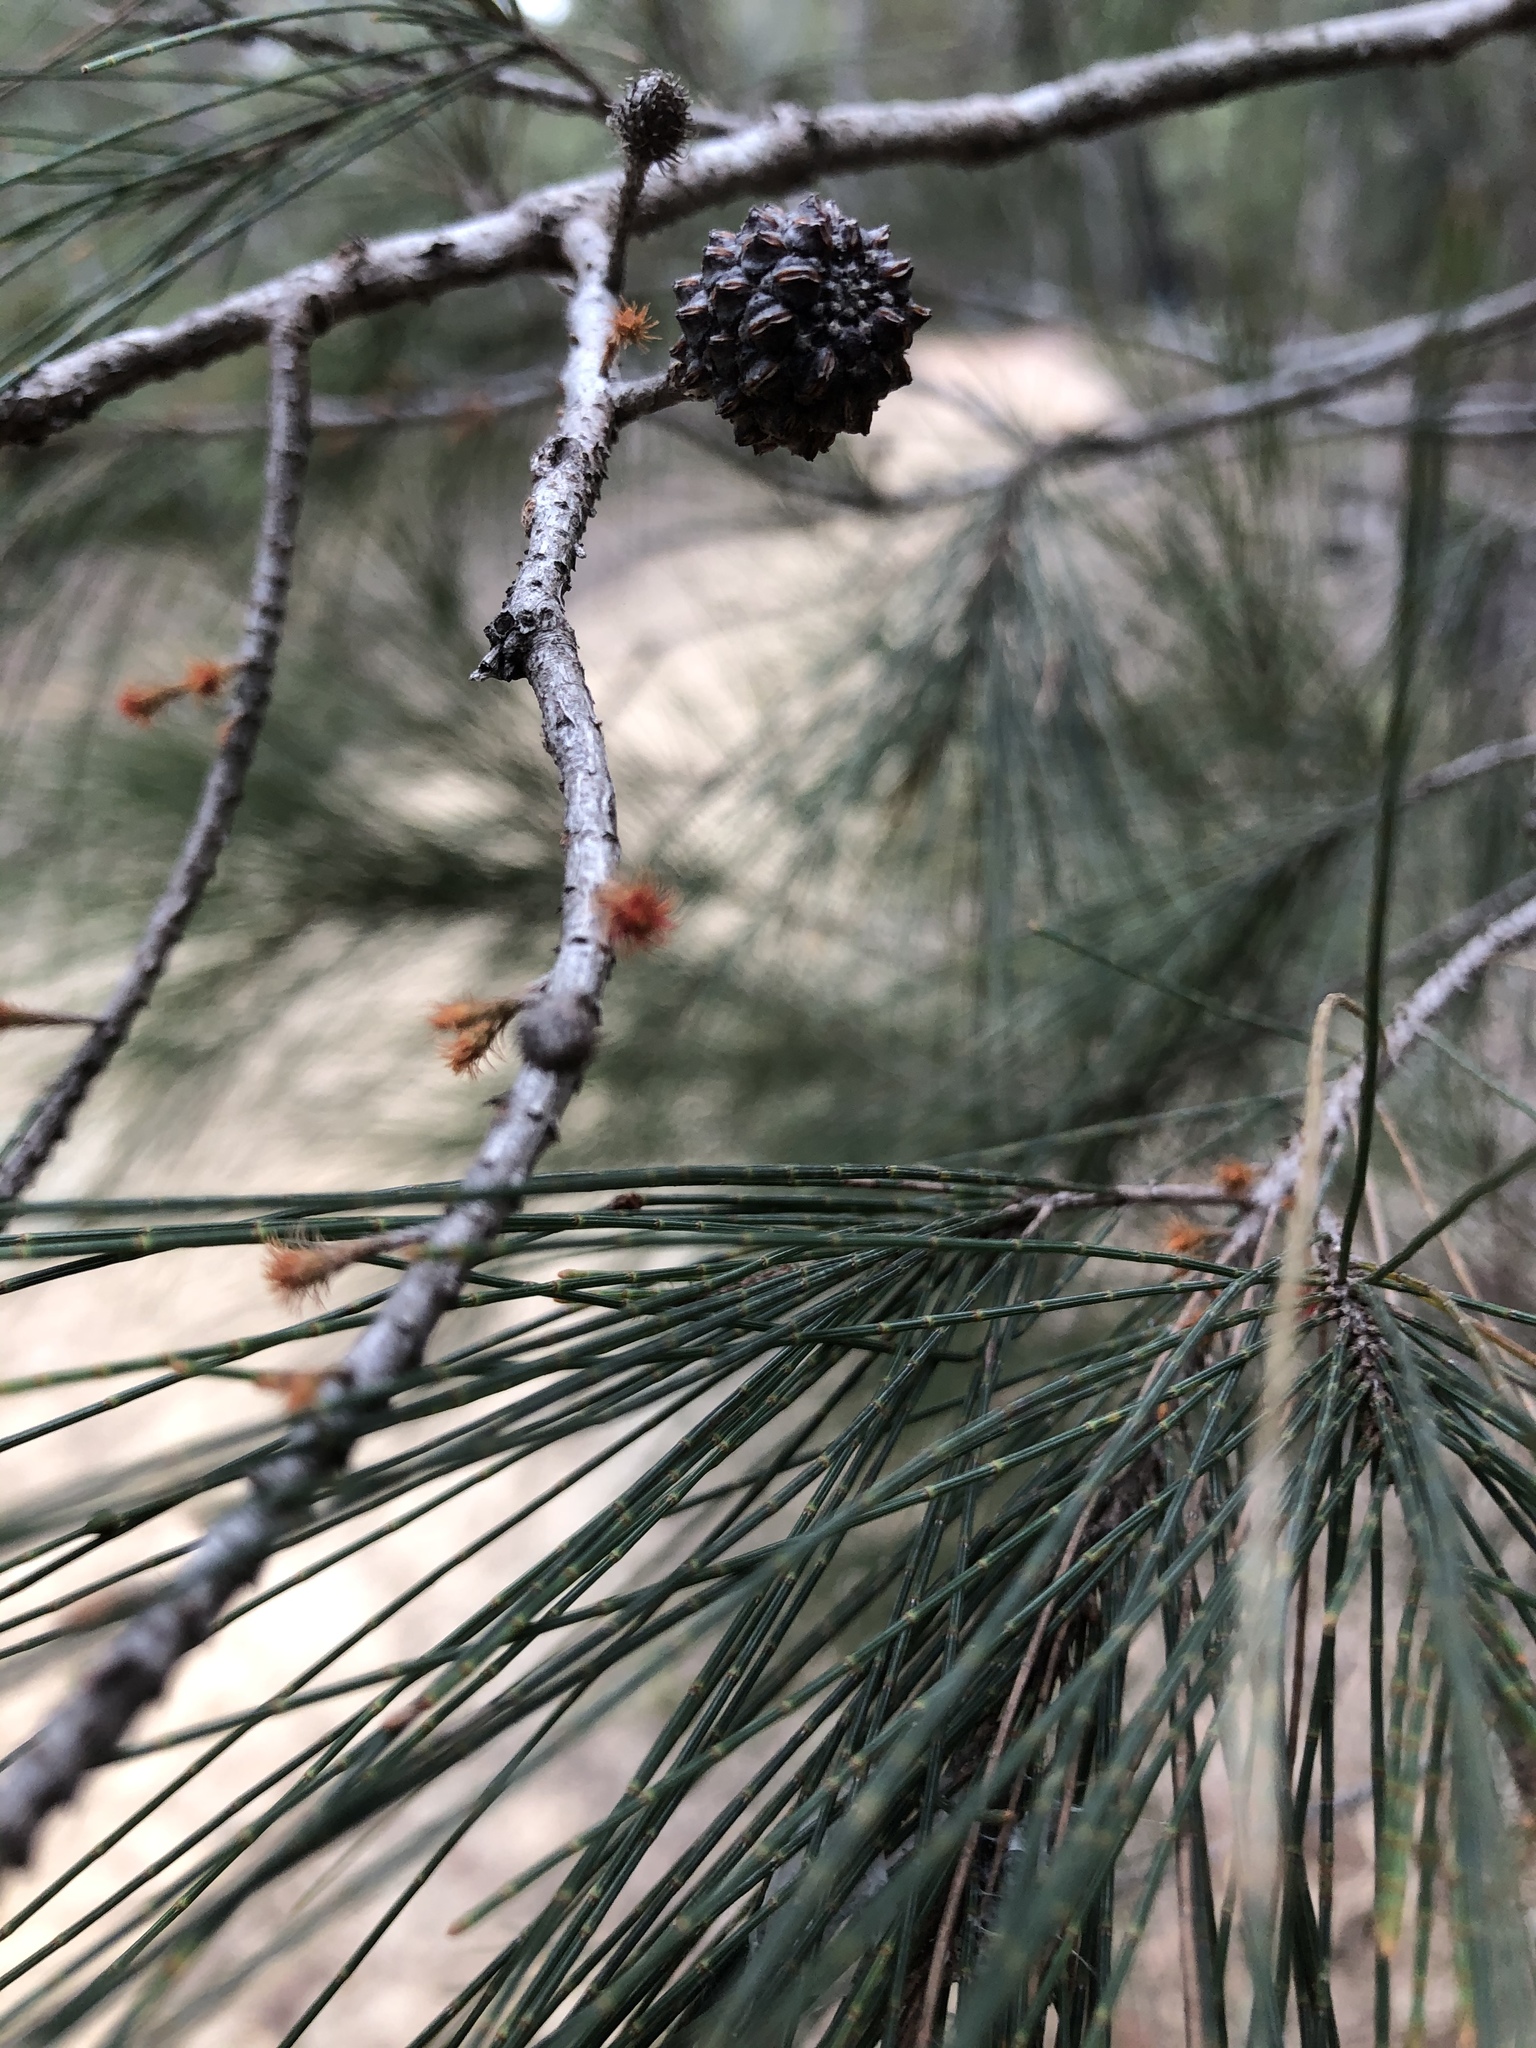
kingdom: Plantae
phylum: Tracheophyta
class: Magnoliopsida
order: Fagales
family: Casuarinaceae
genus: Allocasuarina
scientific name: Allocasuarina littoralis
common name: Black she-oak
